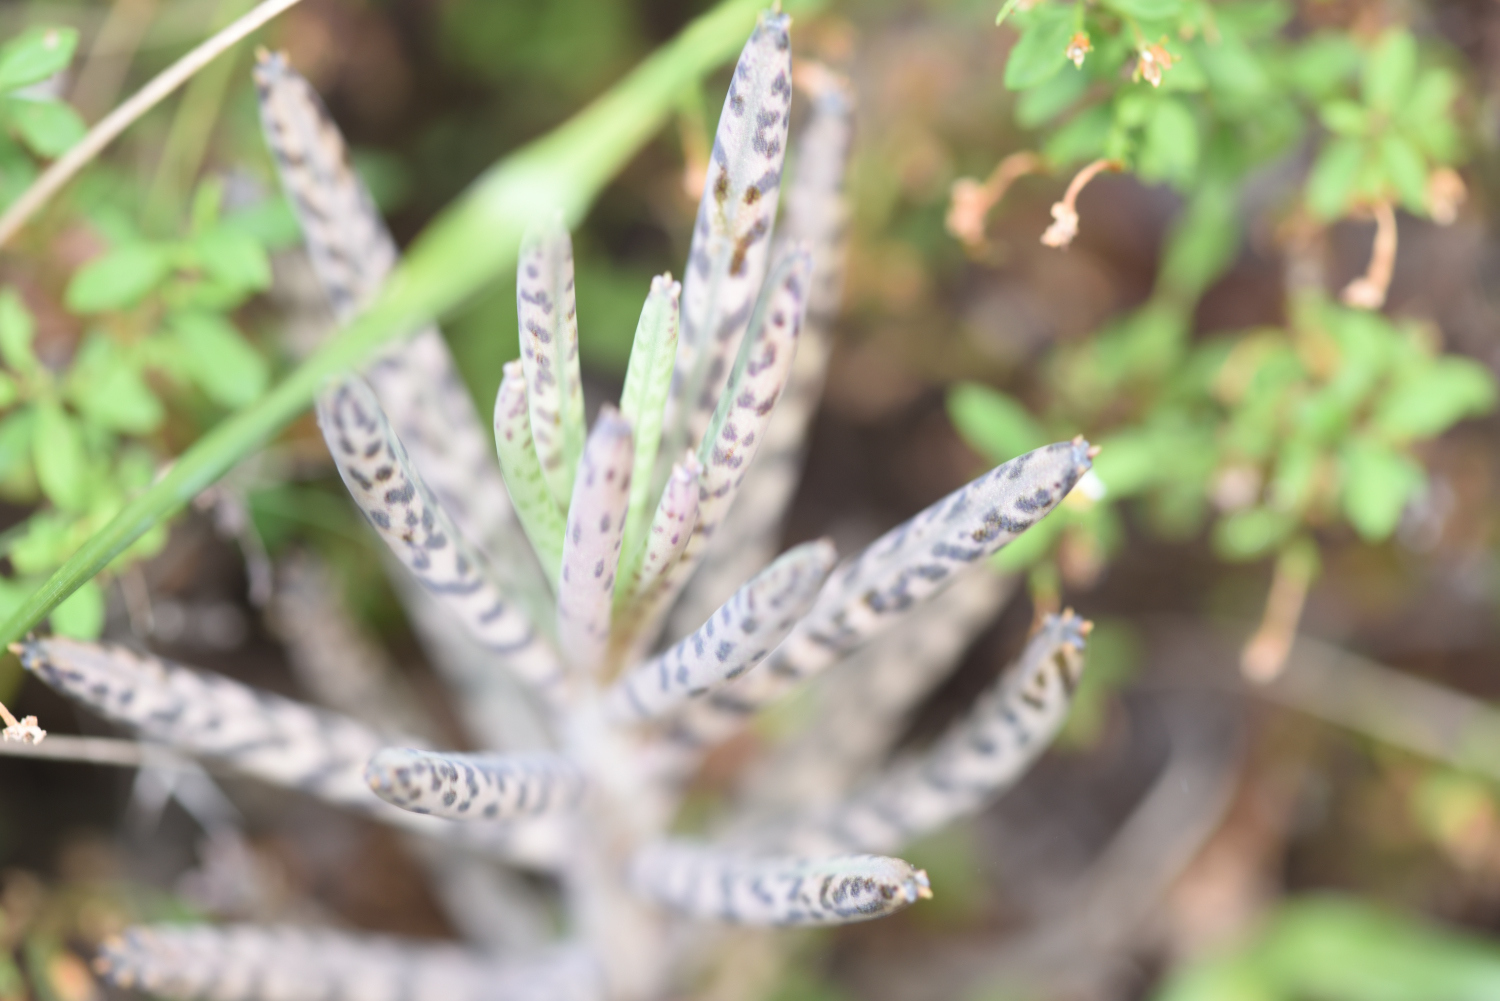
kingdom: Plantae
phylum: Tracheophyta
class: Magnoliopsida
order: Saxifragales
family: Crassulaceae
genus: Kalanchoe
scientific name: Kalanchoe delagoensis
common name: Chandelier plant
